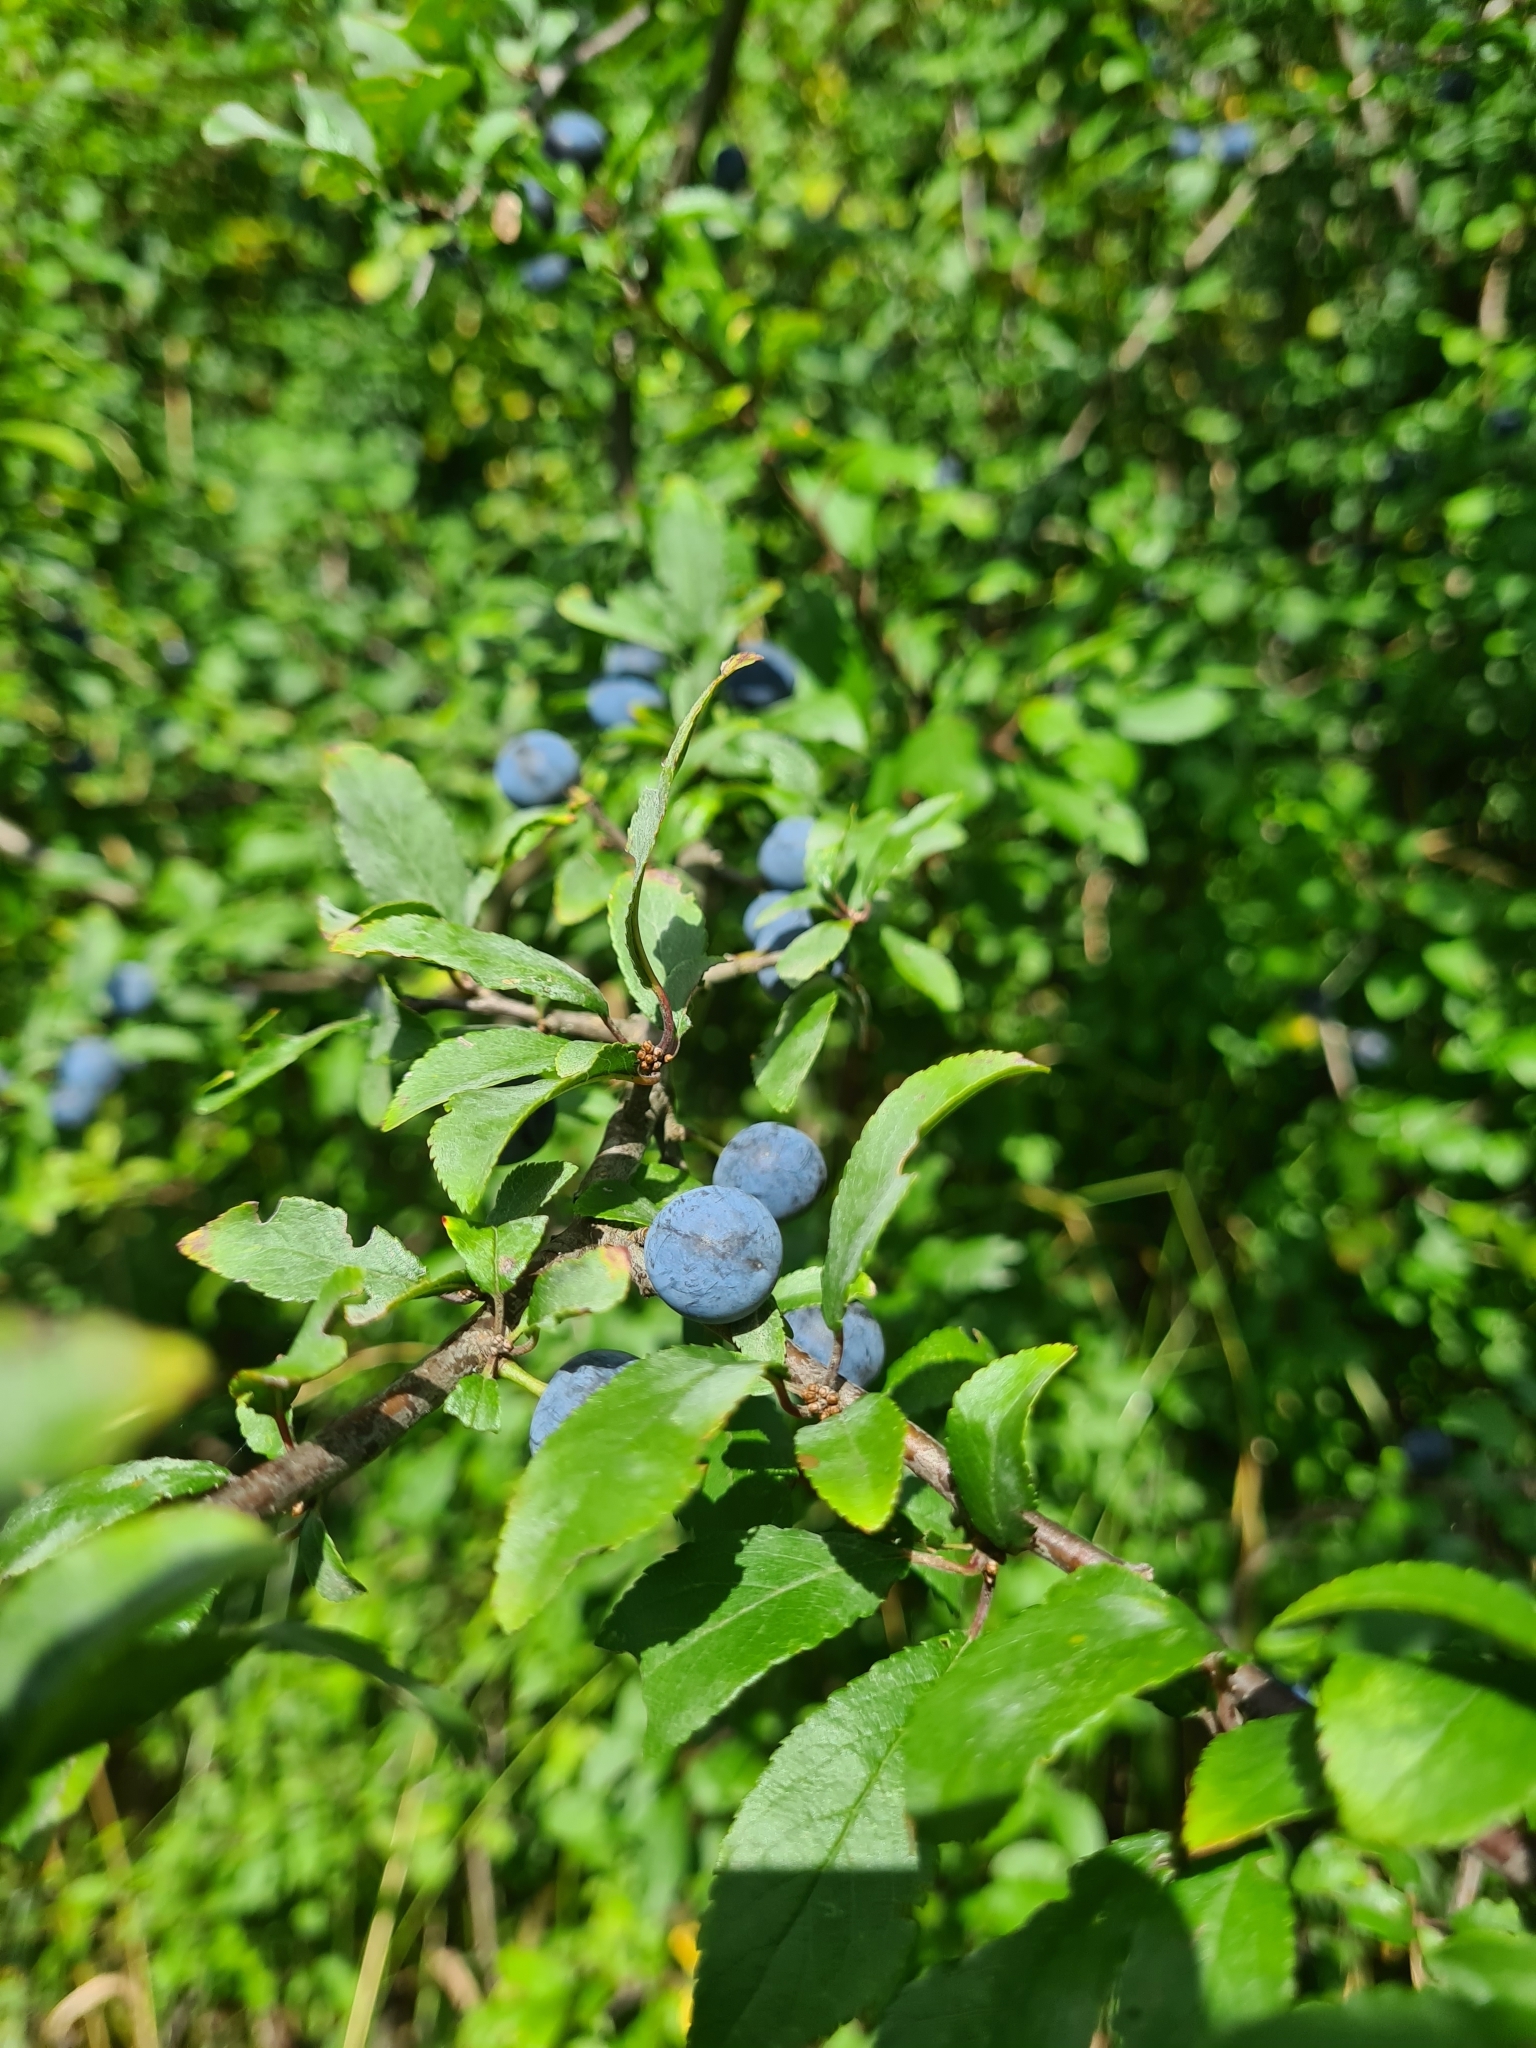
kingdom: Plantae
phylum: Tracheophyta
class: Magnoliopsida
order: Rosales
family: Rosaceae
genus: Prunus
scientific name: Prunus spinosa
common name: Blackthorn
